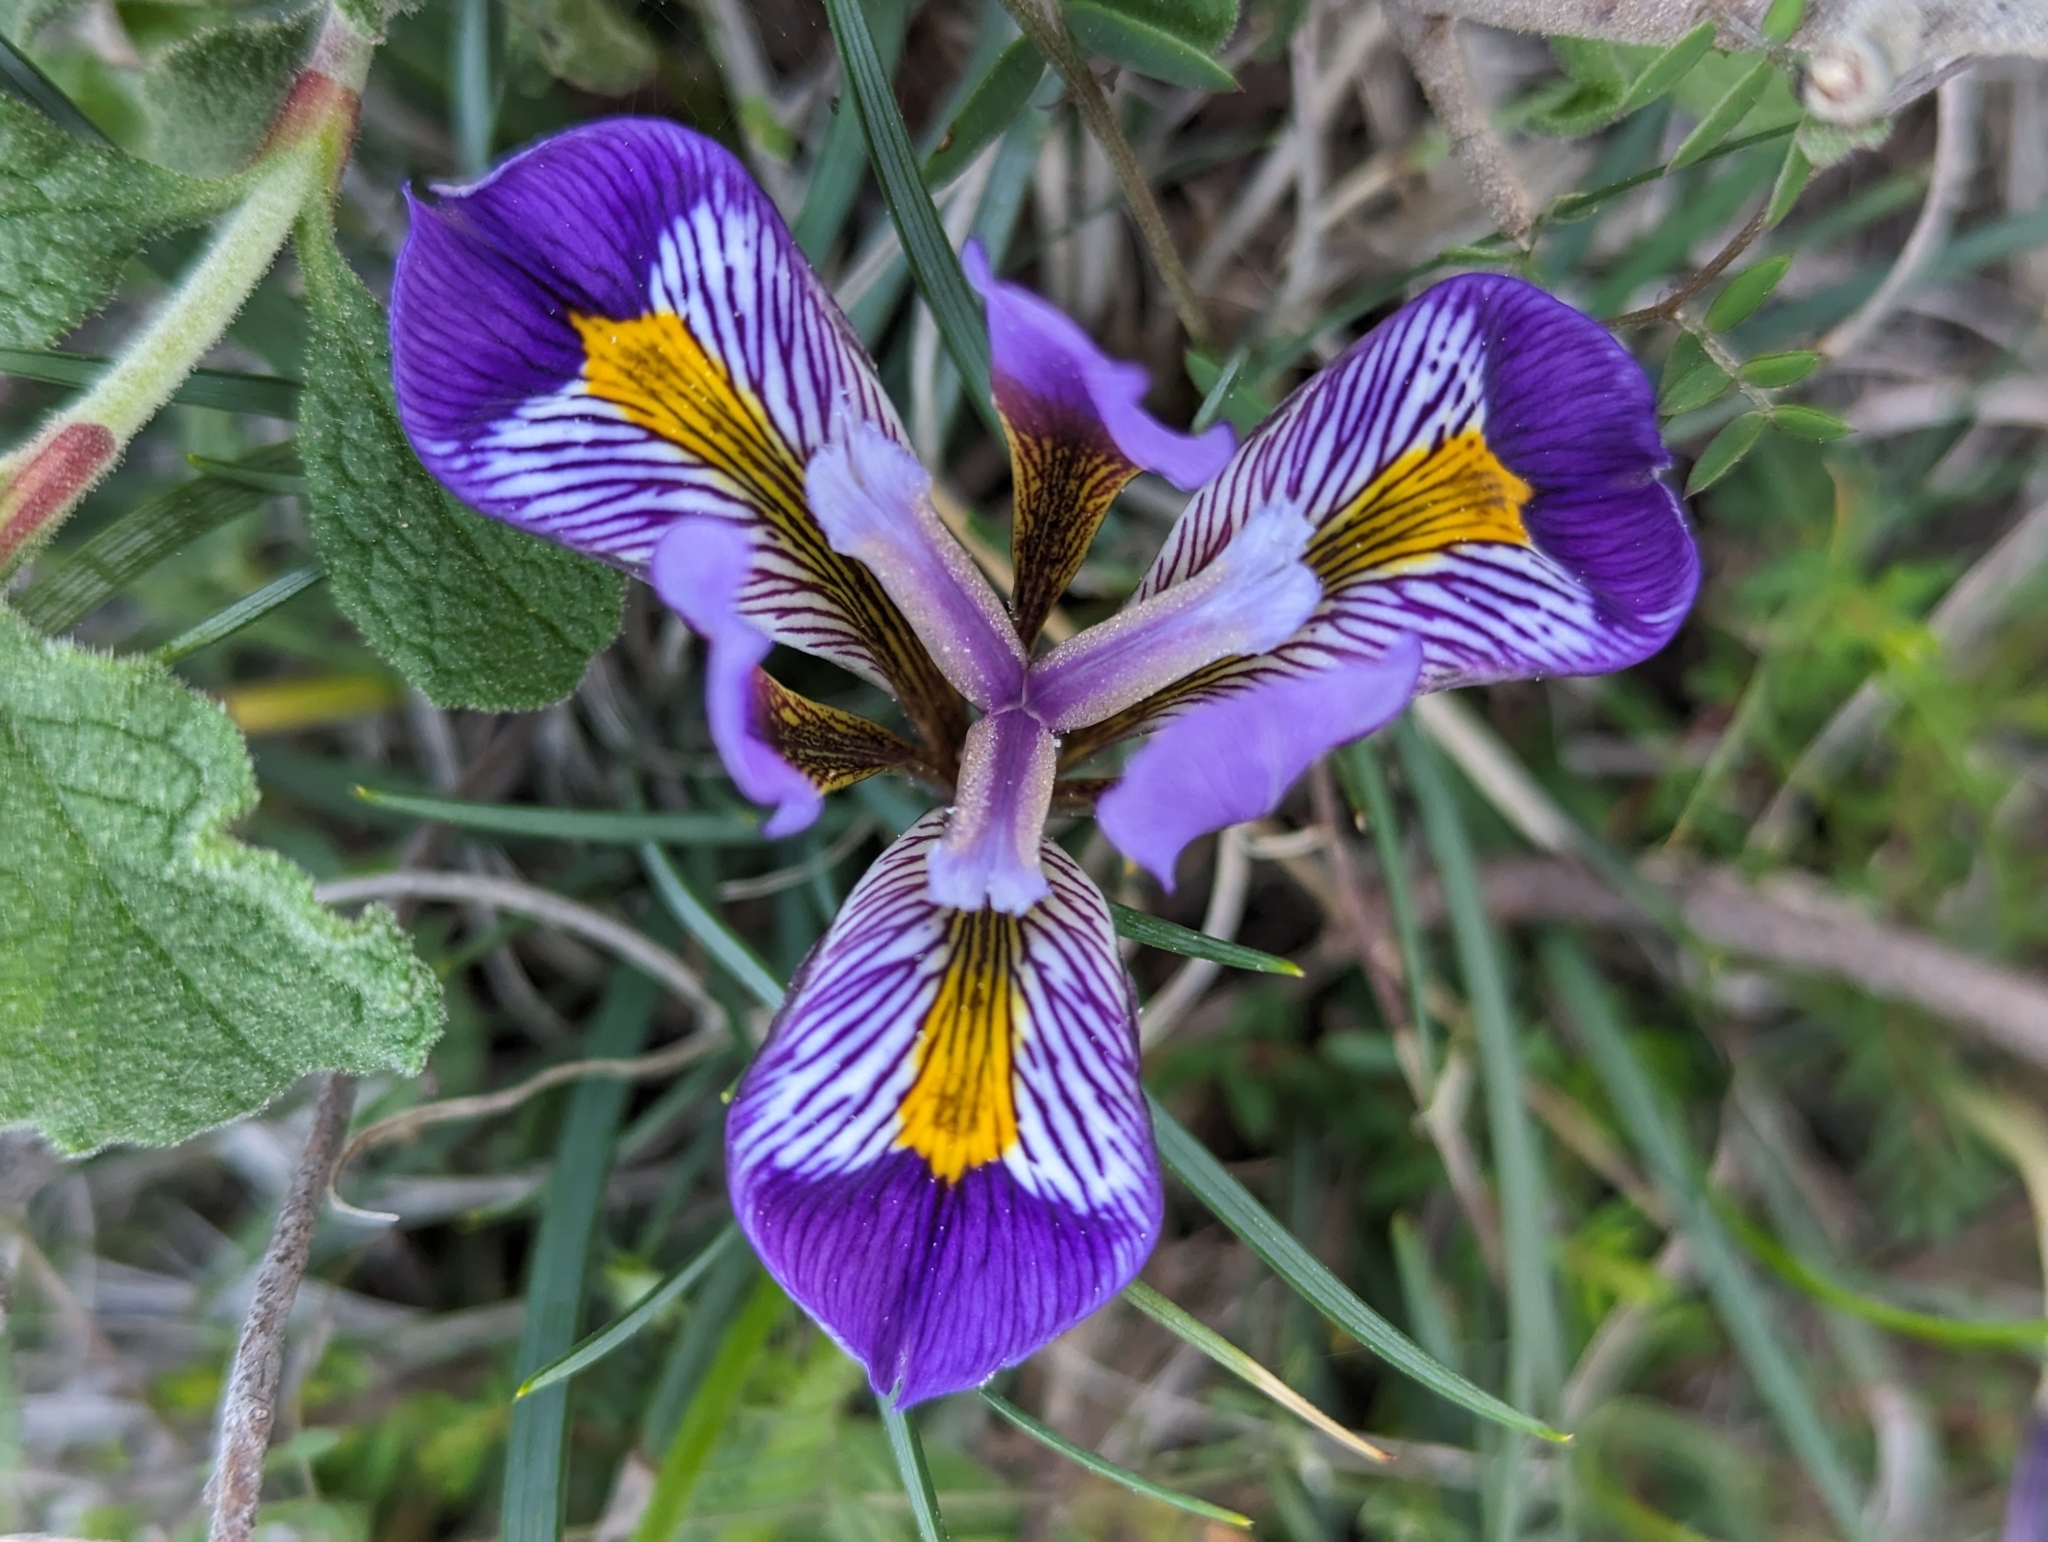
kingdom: Plantae
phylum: Tracheophyta
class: Liliopsida
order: Asparagales
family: Iridaceae
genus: Iris
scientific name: Iris unguicularis
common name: Algerian iris
